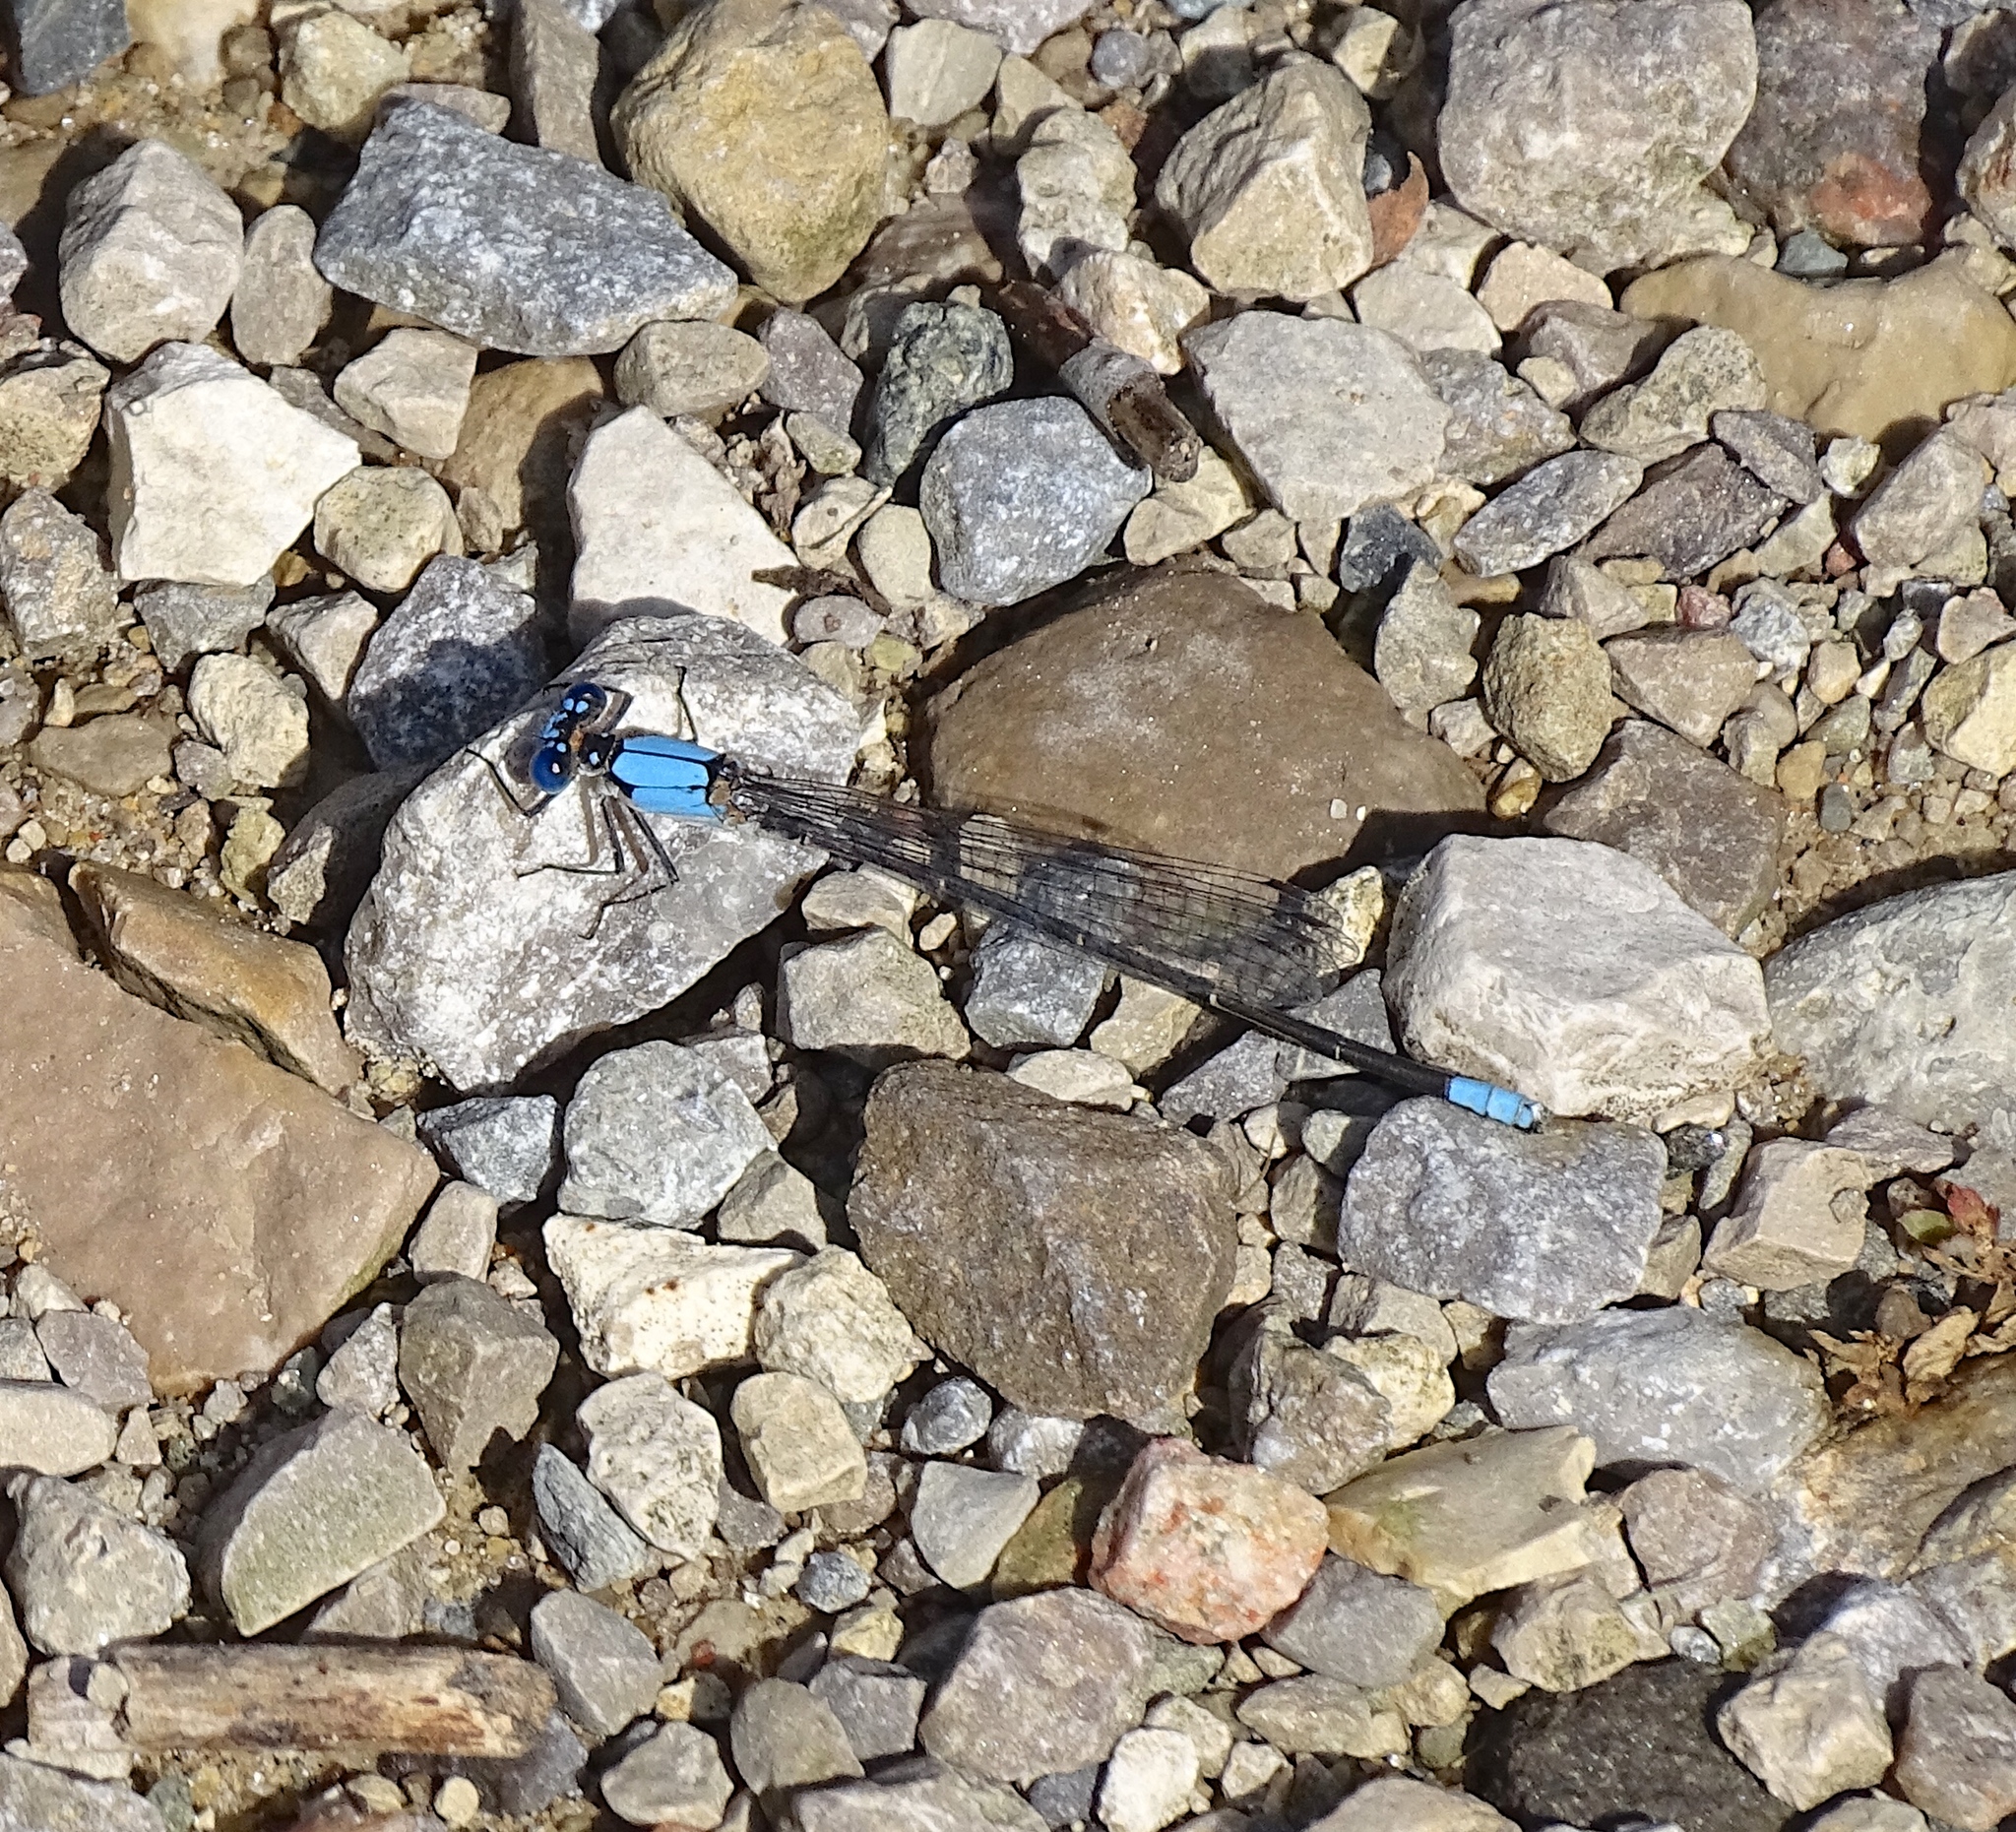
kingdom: Animalia
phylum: Arthropoda
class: Insecta
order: Odonata
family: Coenagrionidae
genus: Argia
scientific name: Argia apicalis
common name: Blue-fronted dancer
